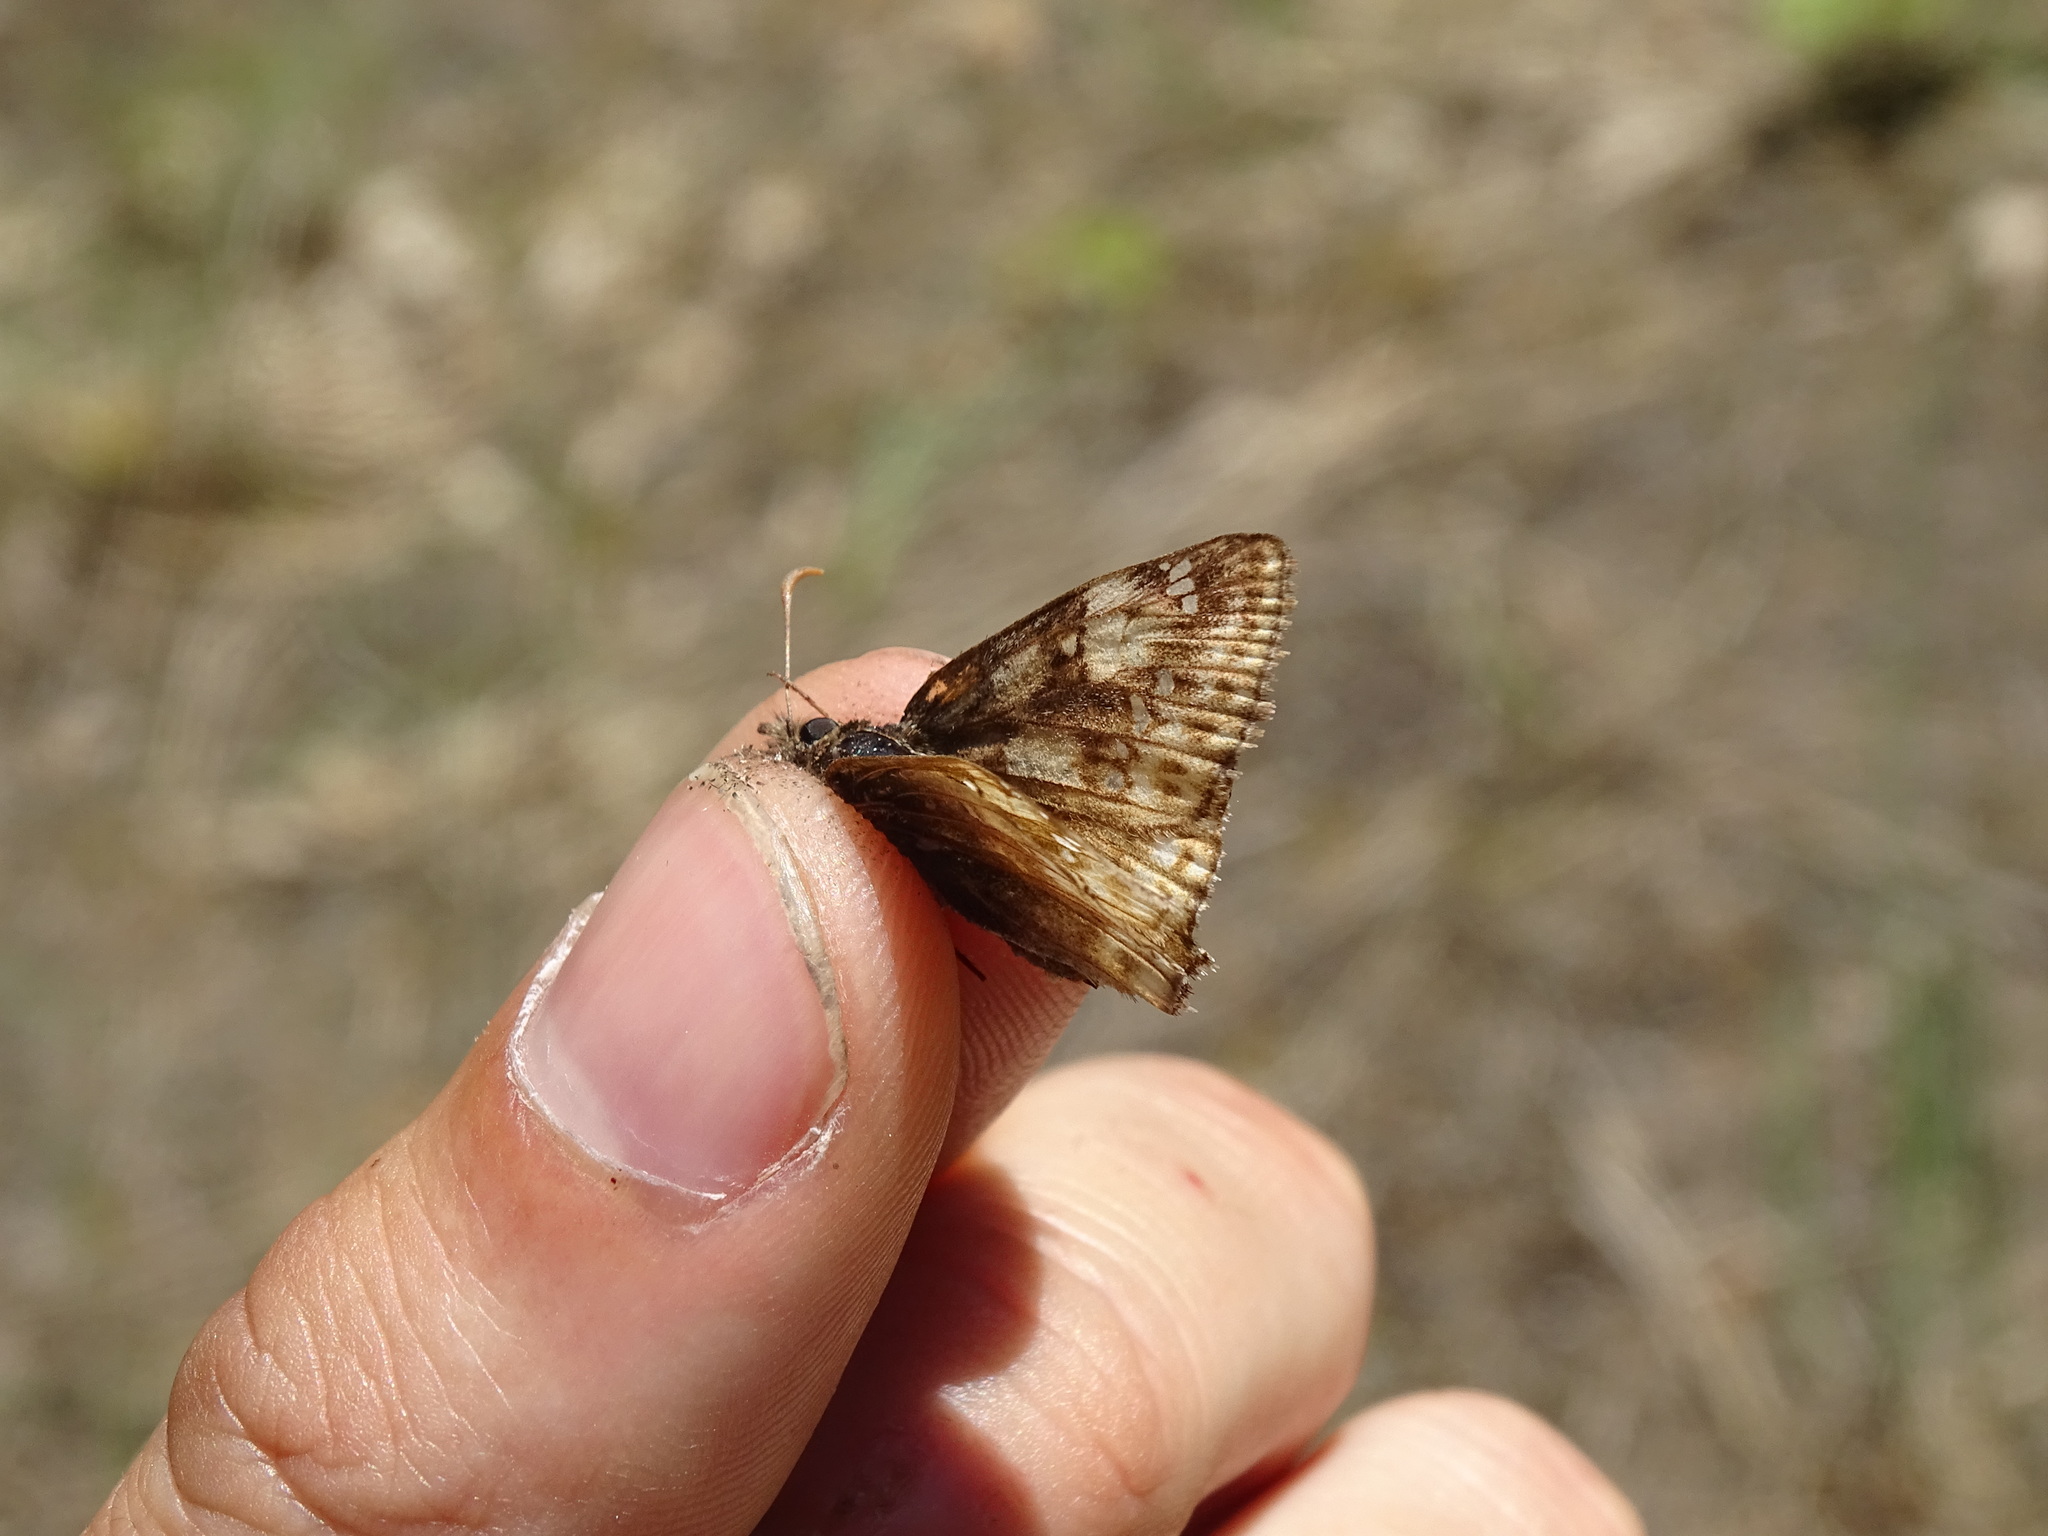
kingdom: Animalia
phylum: Arthropoda
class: Insecta
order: Lepidoptera
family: Hesperiidae
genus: Erynnis
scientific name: Erynnis juvenalis
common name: Juvenal's duskywing
